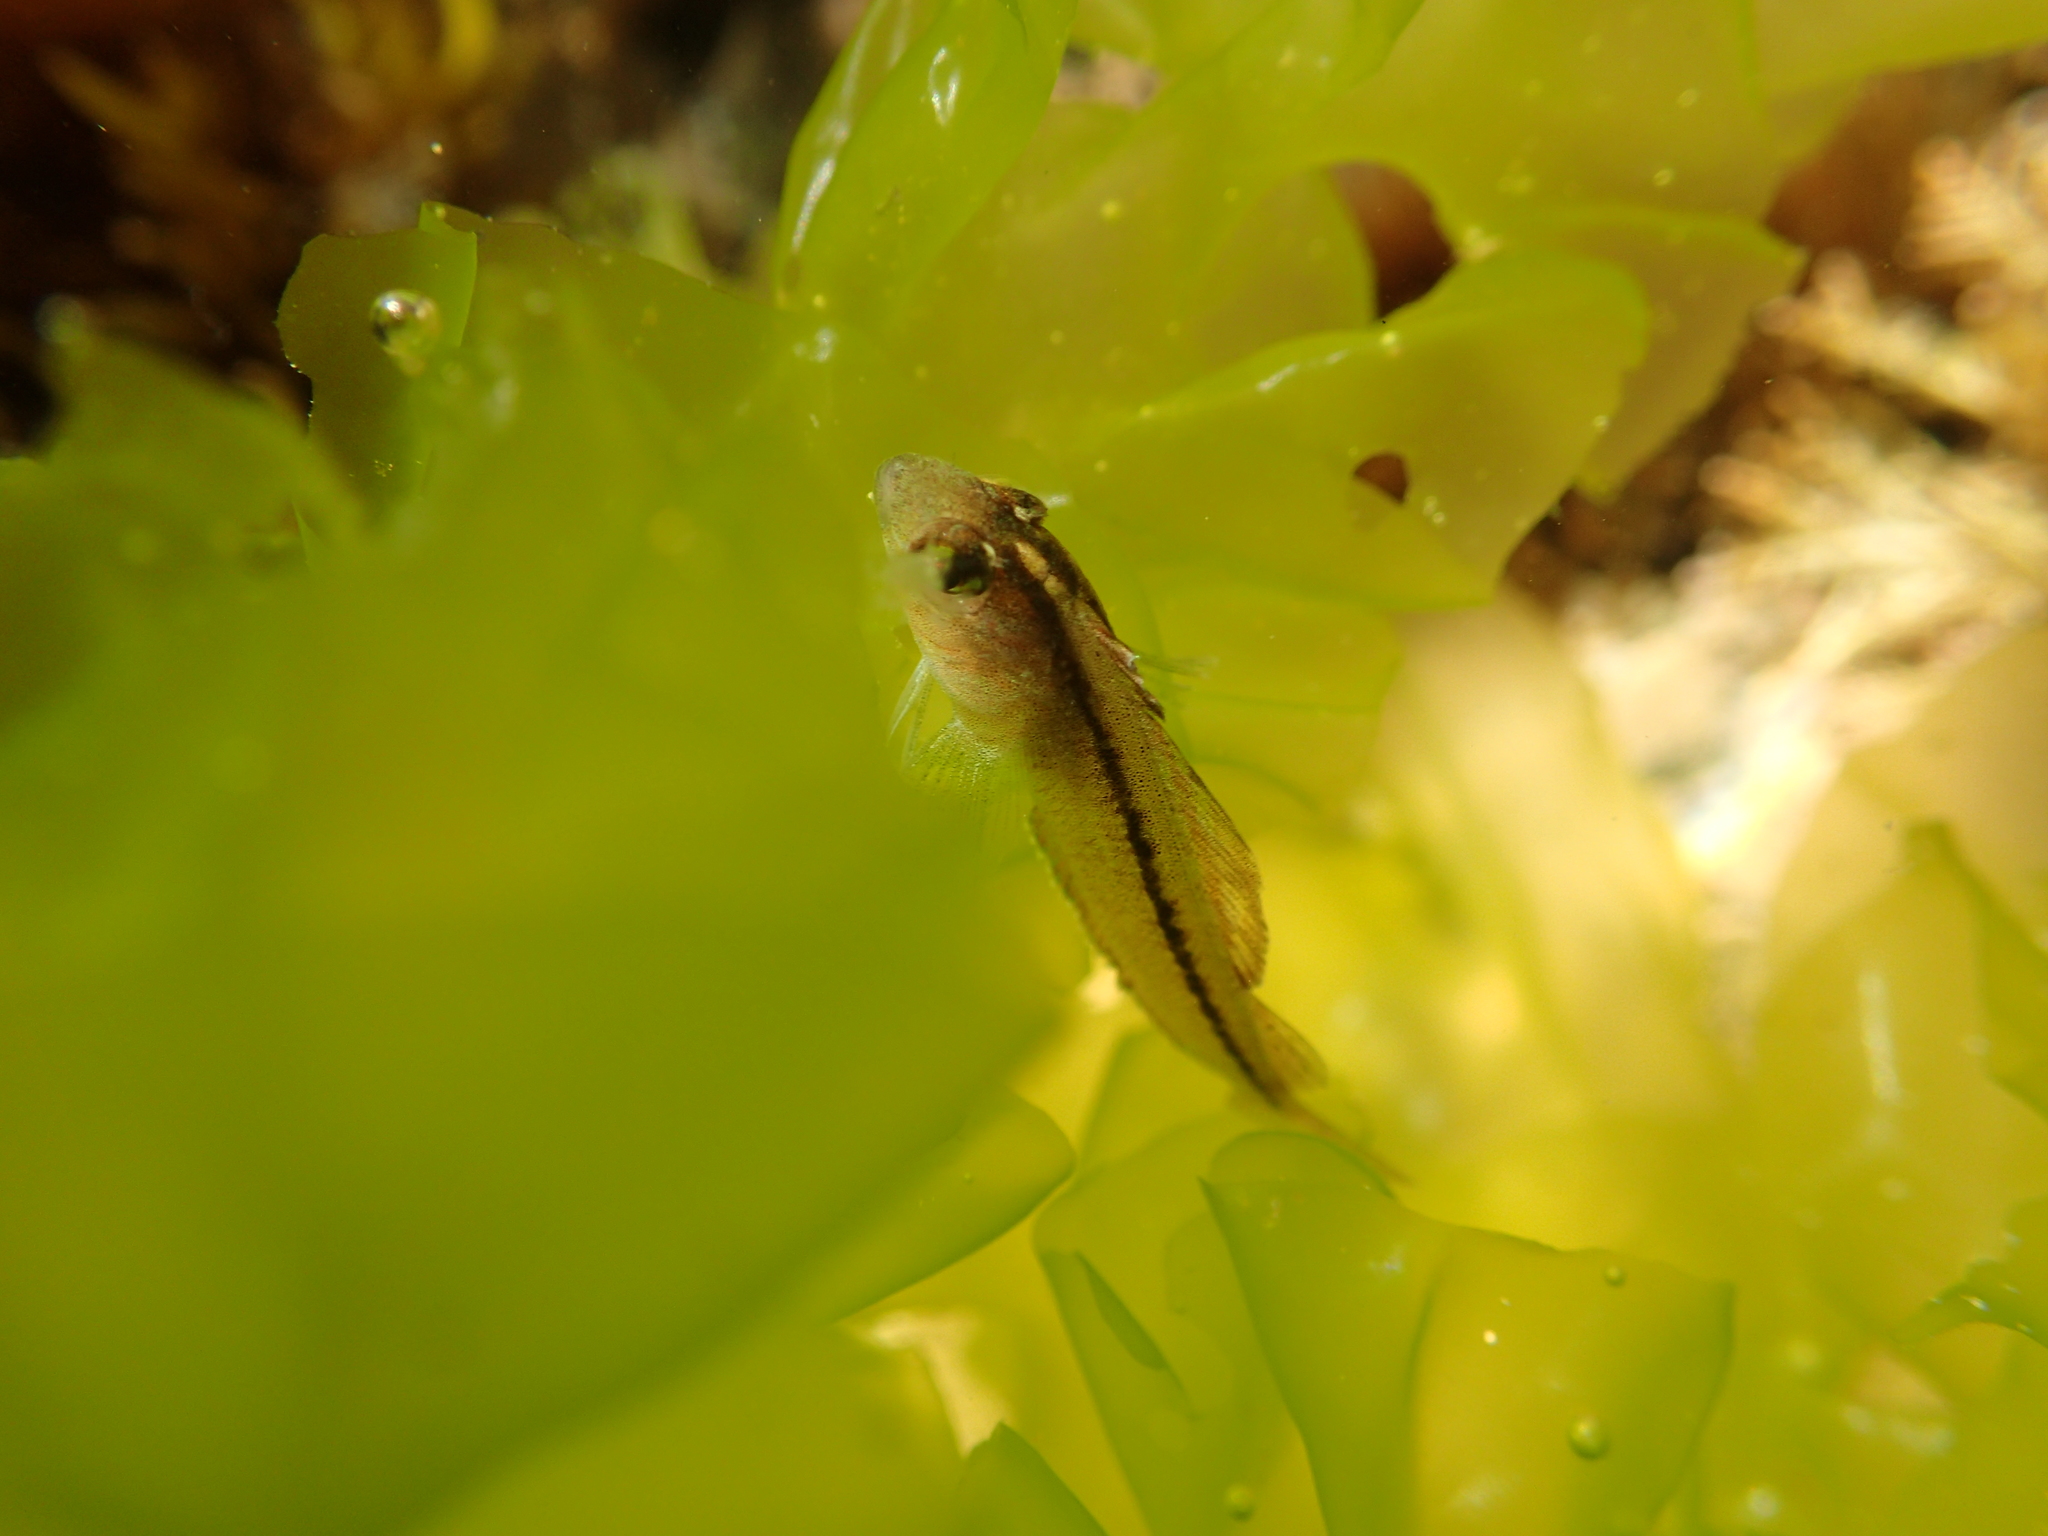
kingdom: Animalia
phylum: Chordata
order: Perciformes
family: Tripterygiidae
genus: Forsterygion
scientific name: Forsterygion lapillum
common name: Common triplefin
